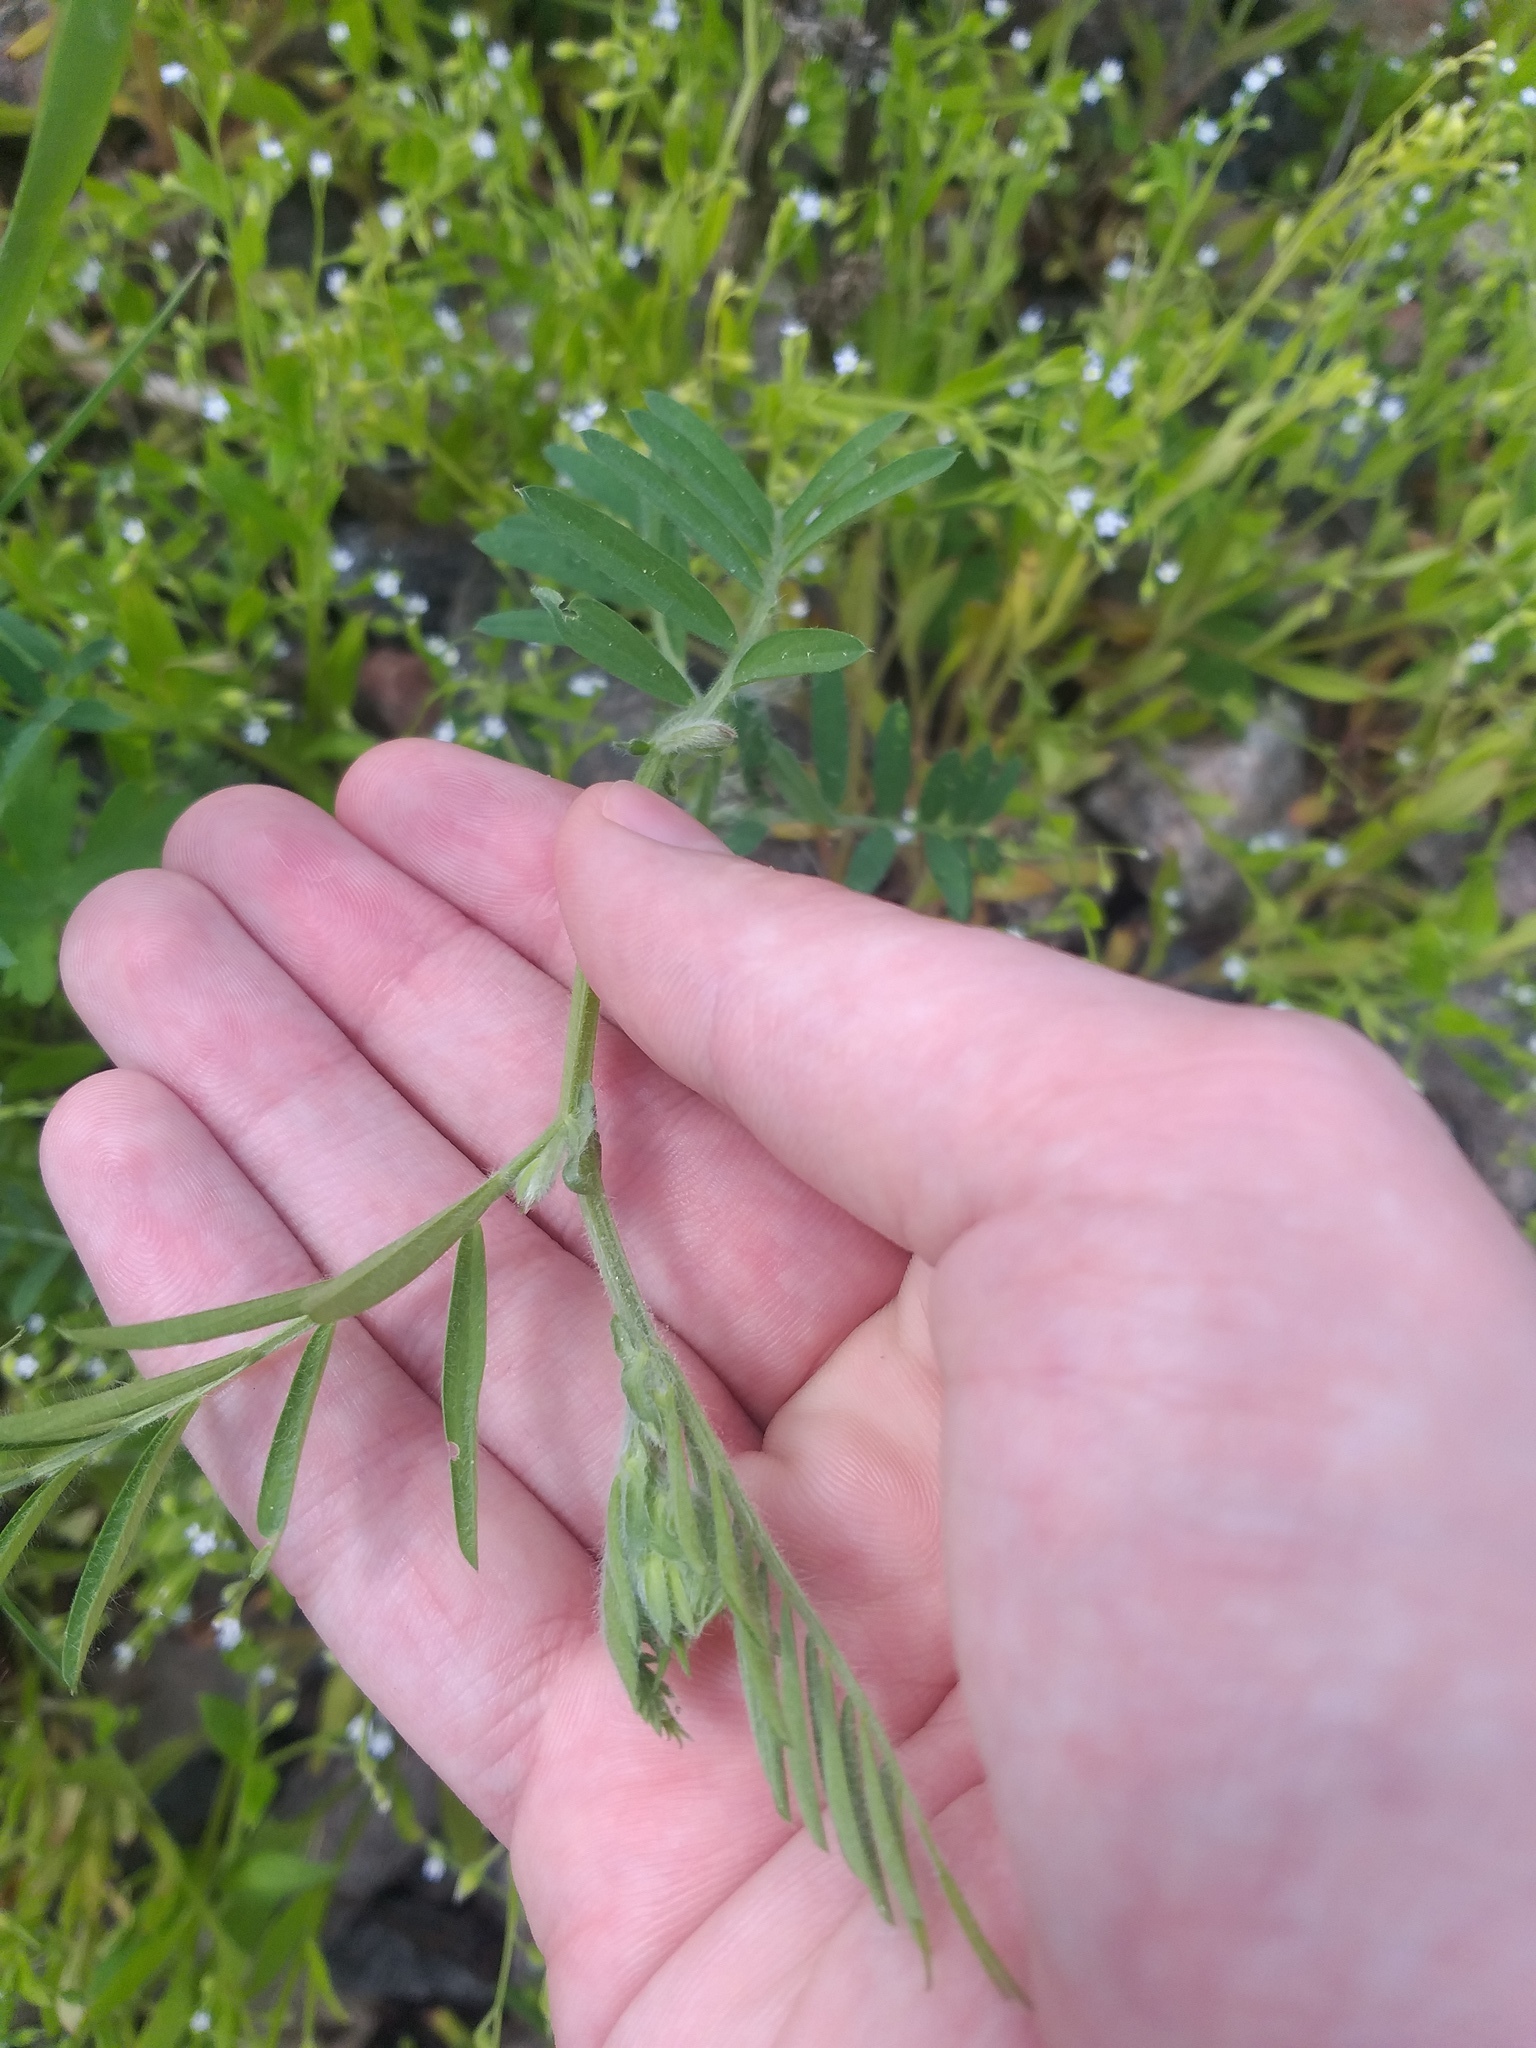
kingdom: Plantae
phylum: Tracheophyta
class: Magnoliopsida
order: Fabales
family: Fabaceae
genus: Vicia
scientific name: Vicia villosa
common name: Fodder vetch
